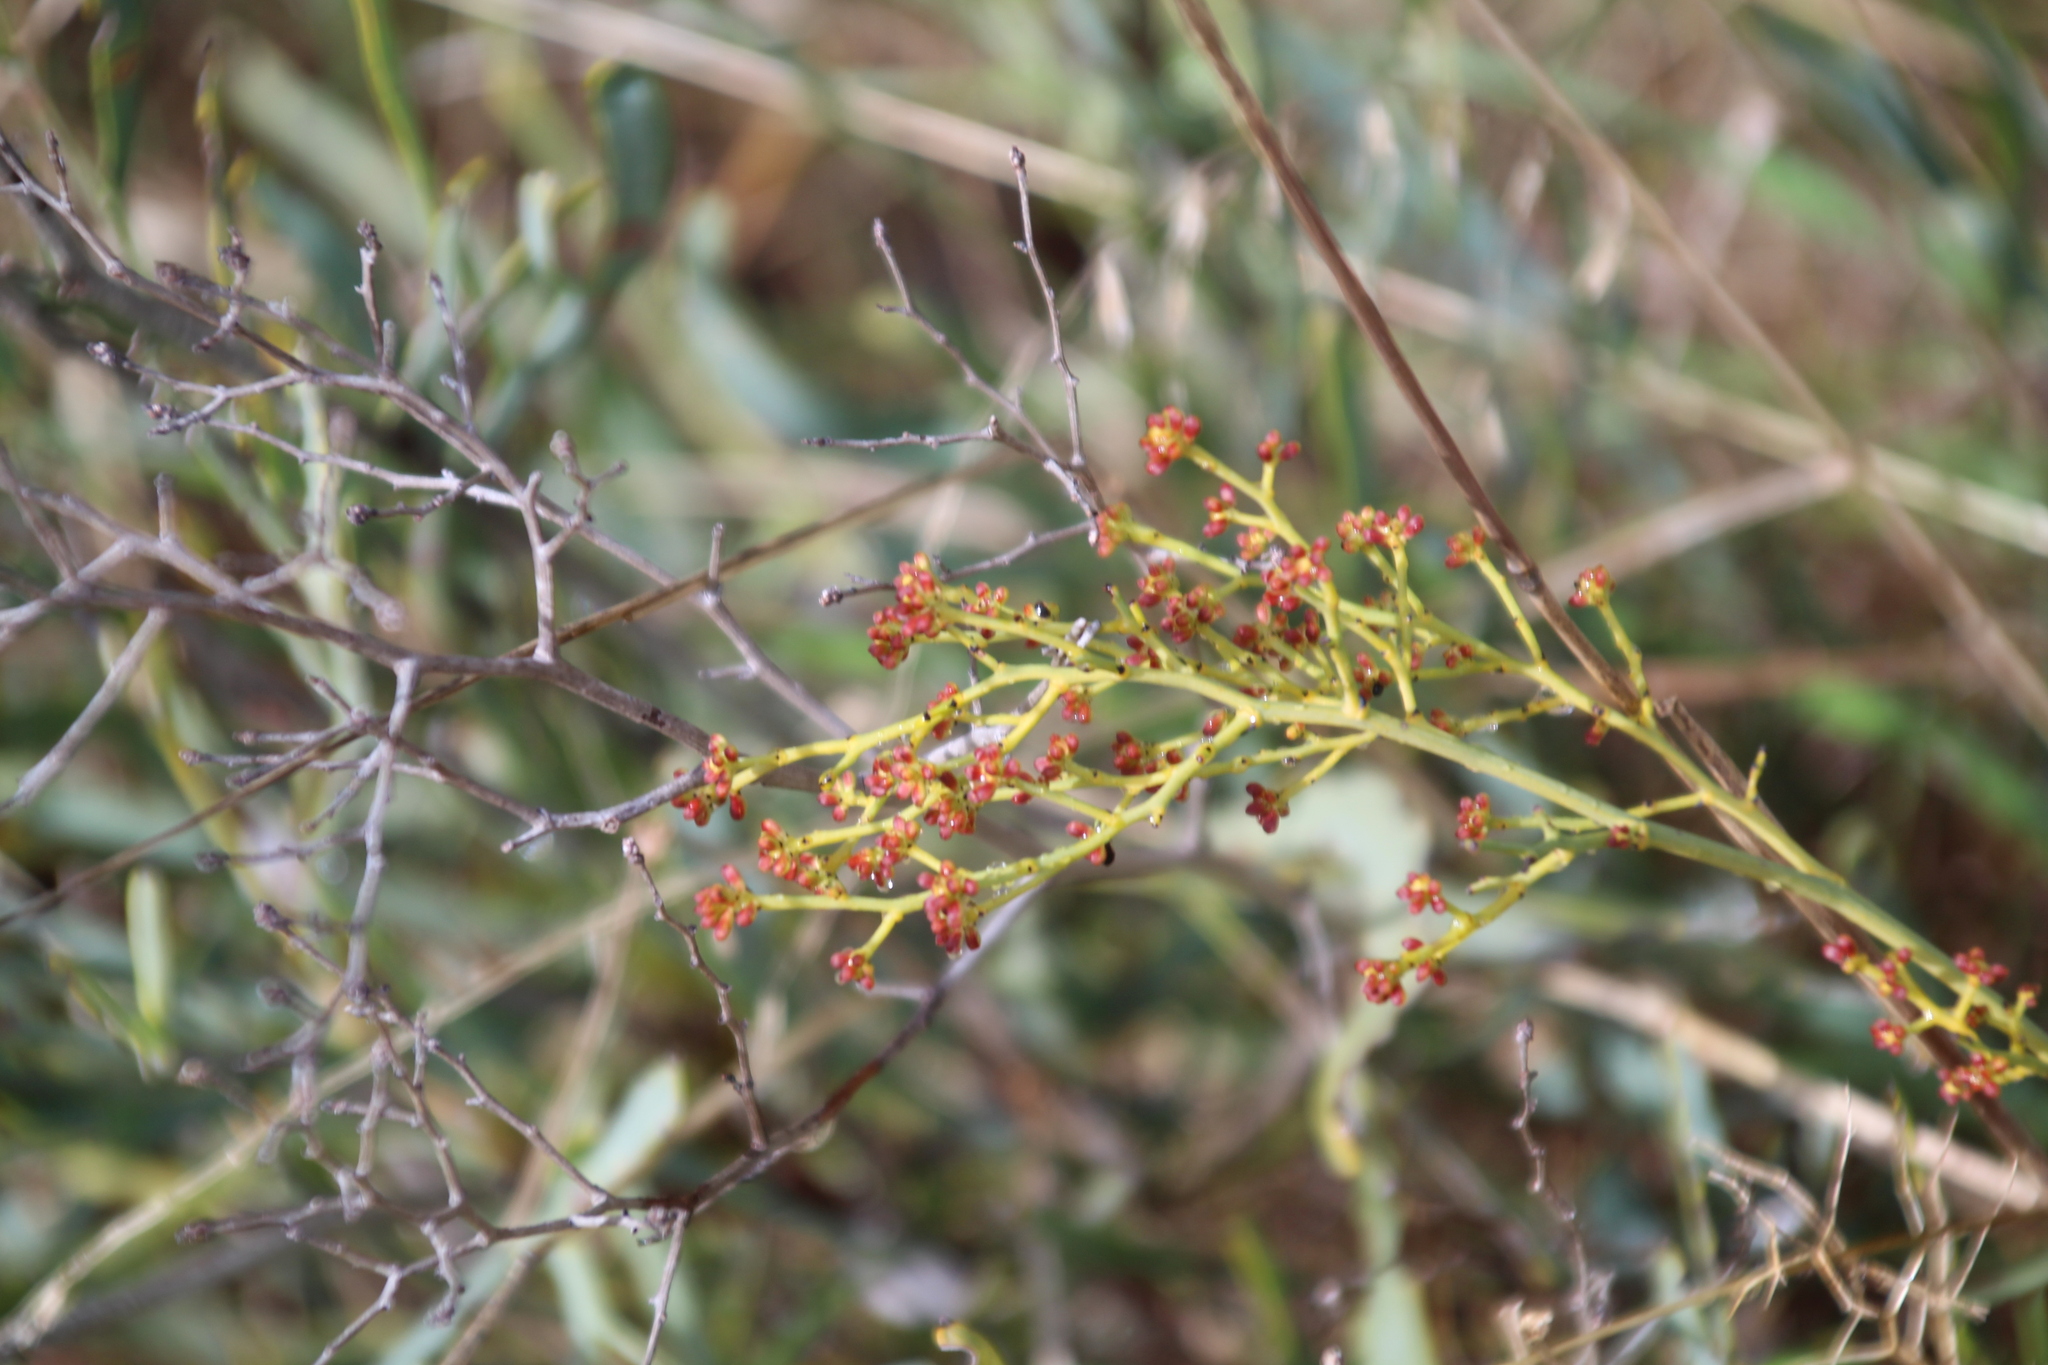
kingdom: Plantae
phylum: Tracheophyta
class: Magnoliopsida
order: Proteales
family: Proteaceae
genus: Stirlingia
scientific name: Stirlingia latifolia
